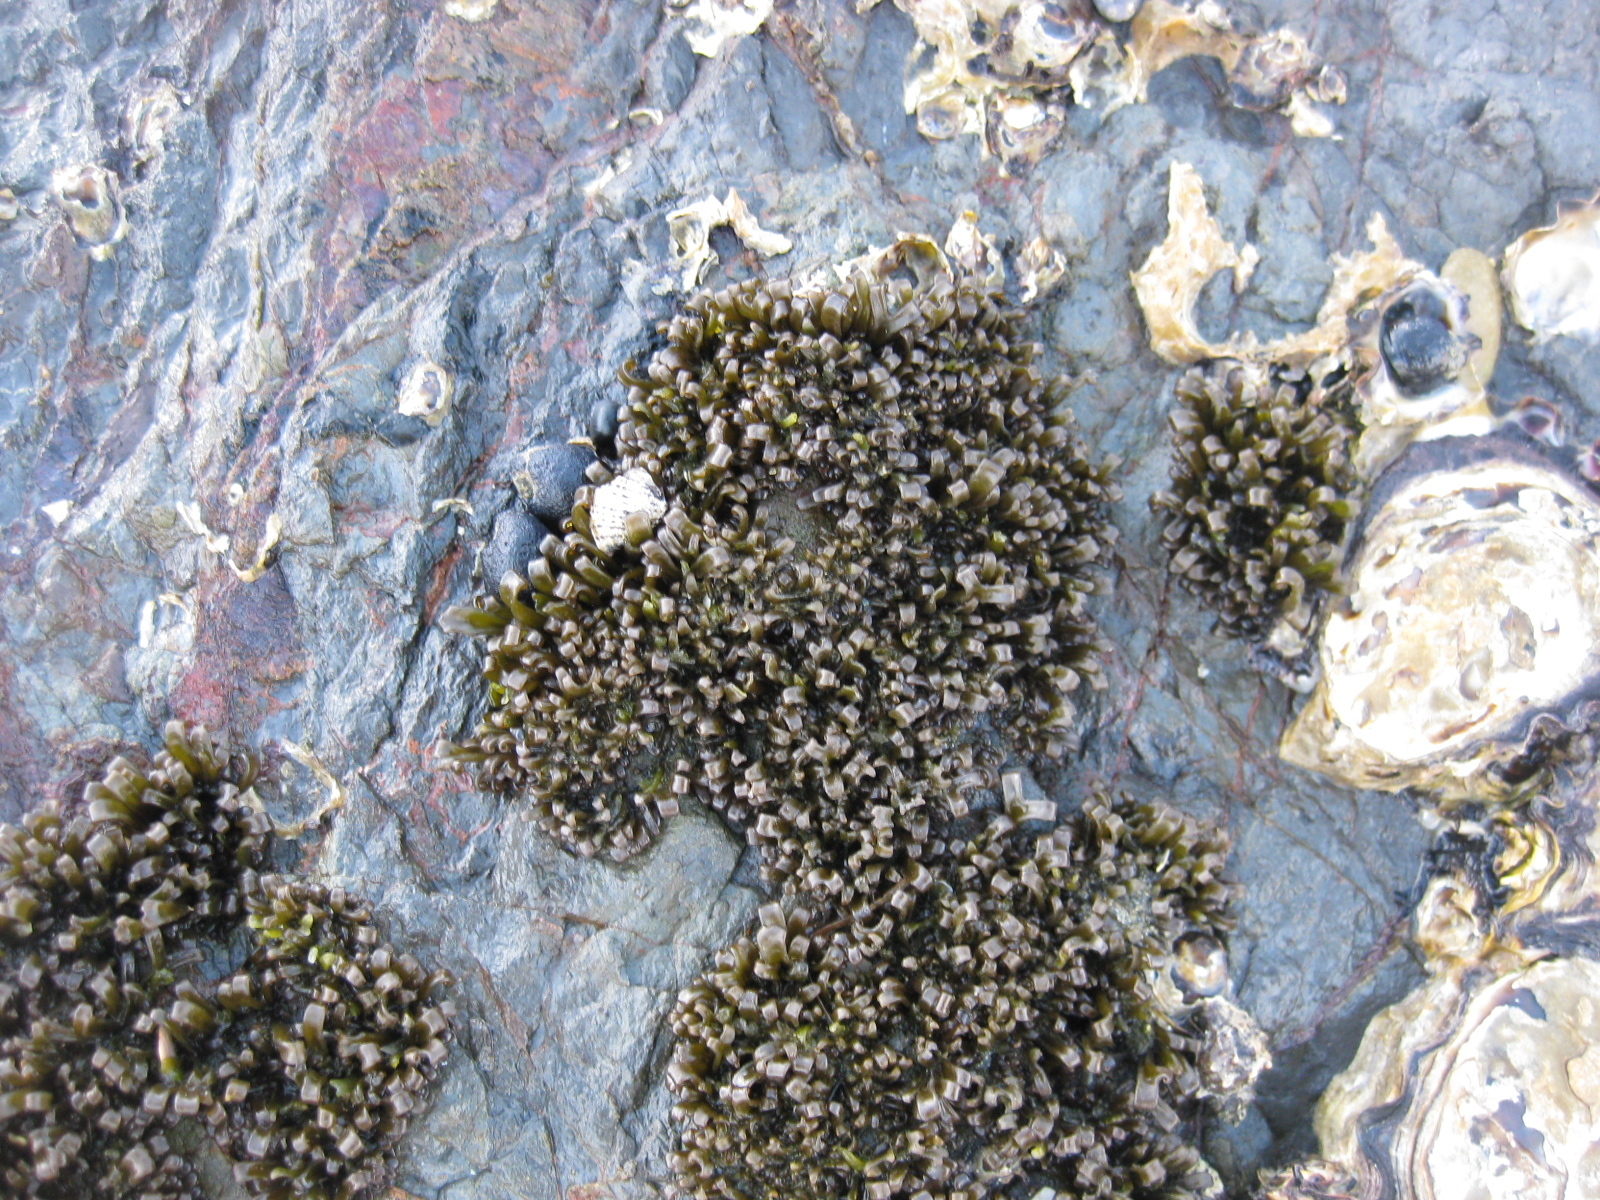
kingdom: Plantae
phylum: Rhodophyta
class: Florideophyceae
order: Gigartinales
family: Gigartinaceae
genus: Psilophycus
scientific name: Psilophycus alveatus
